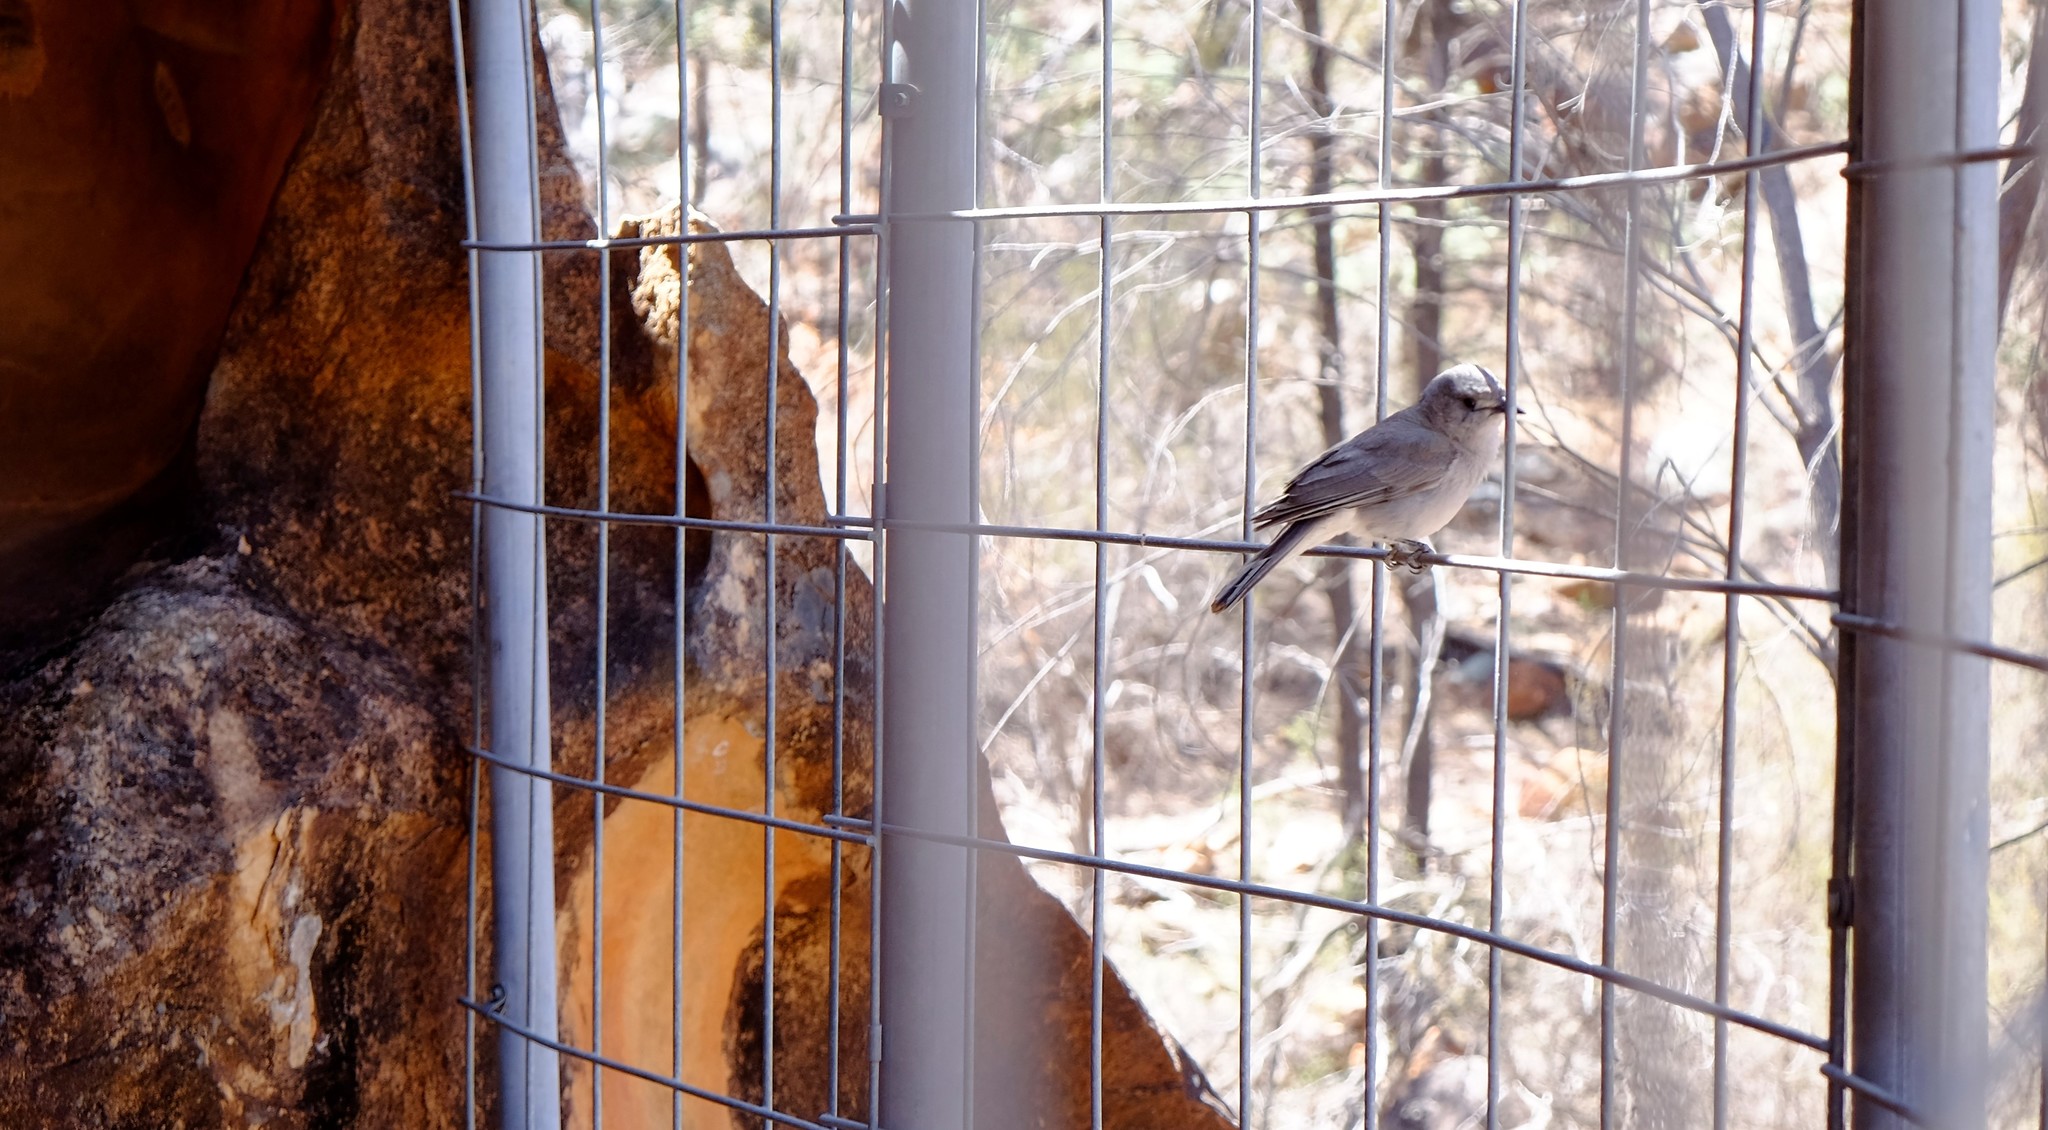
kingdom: Animalia
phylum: Chordata
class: Aves
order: Passeriformes
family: Pachycephalidae
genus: Colluricincla
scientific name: Colluricincla harmonica
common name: Grey shrikethrush
